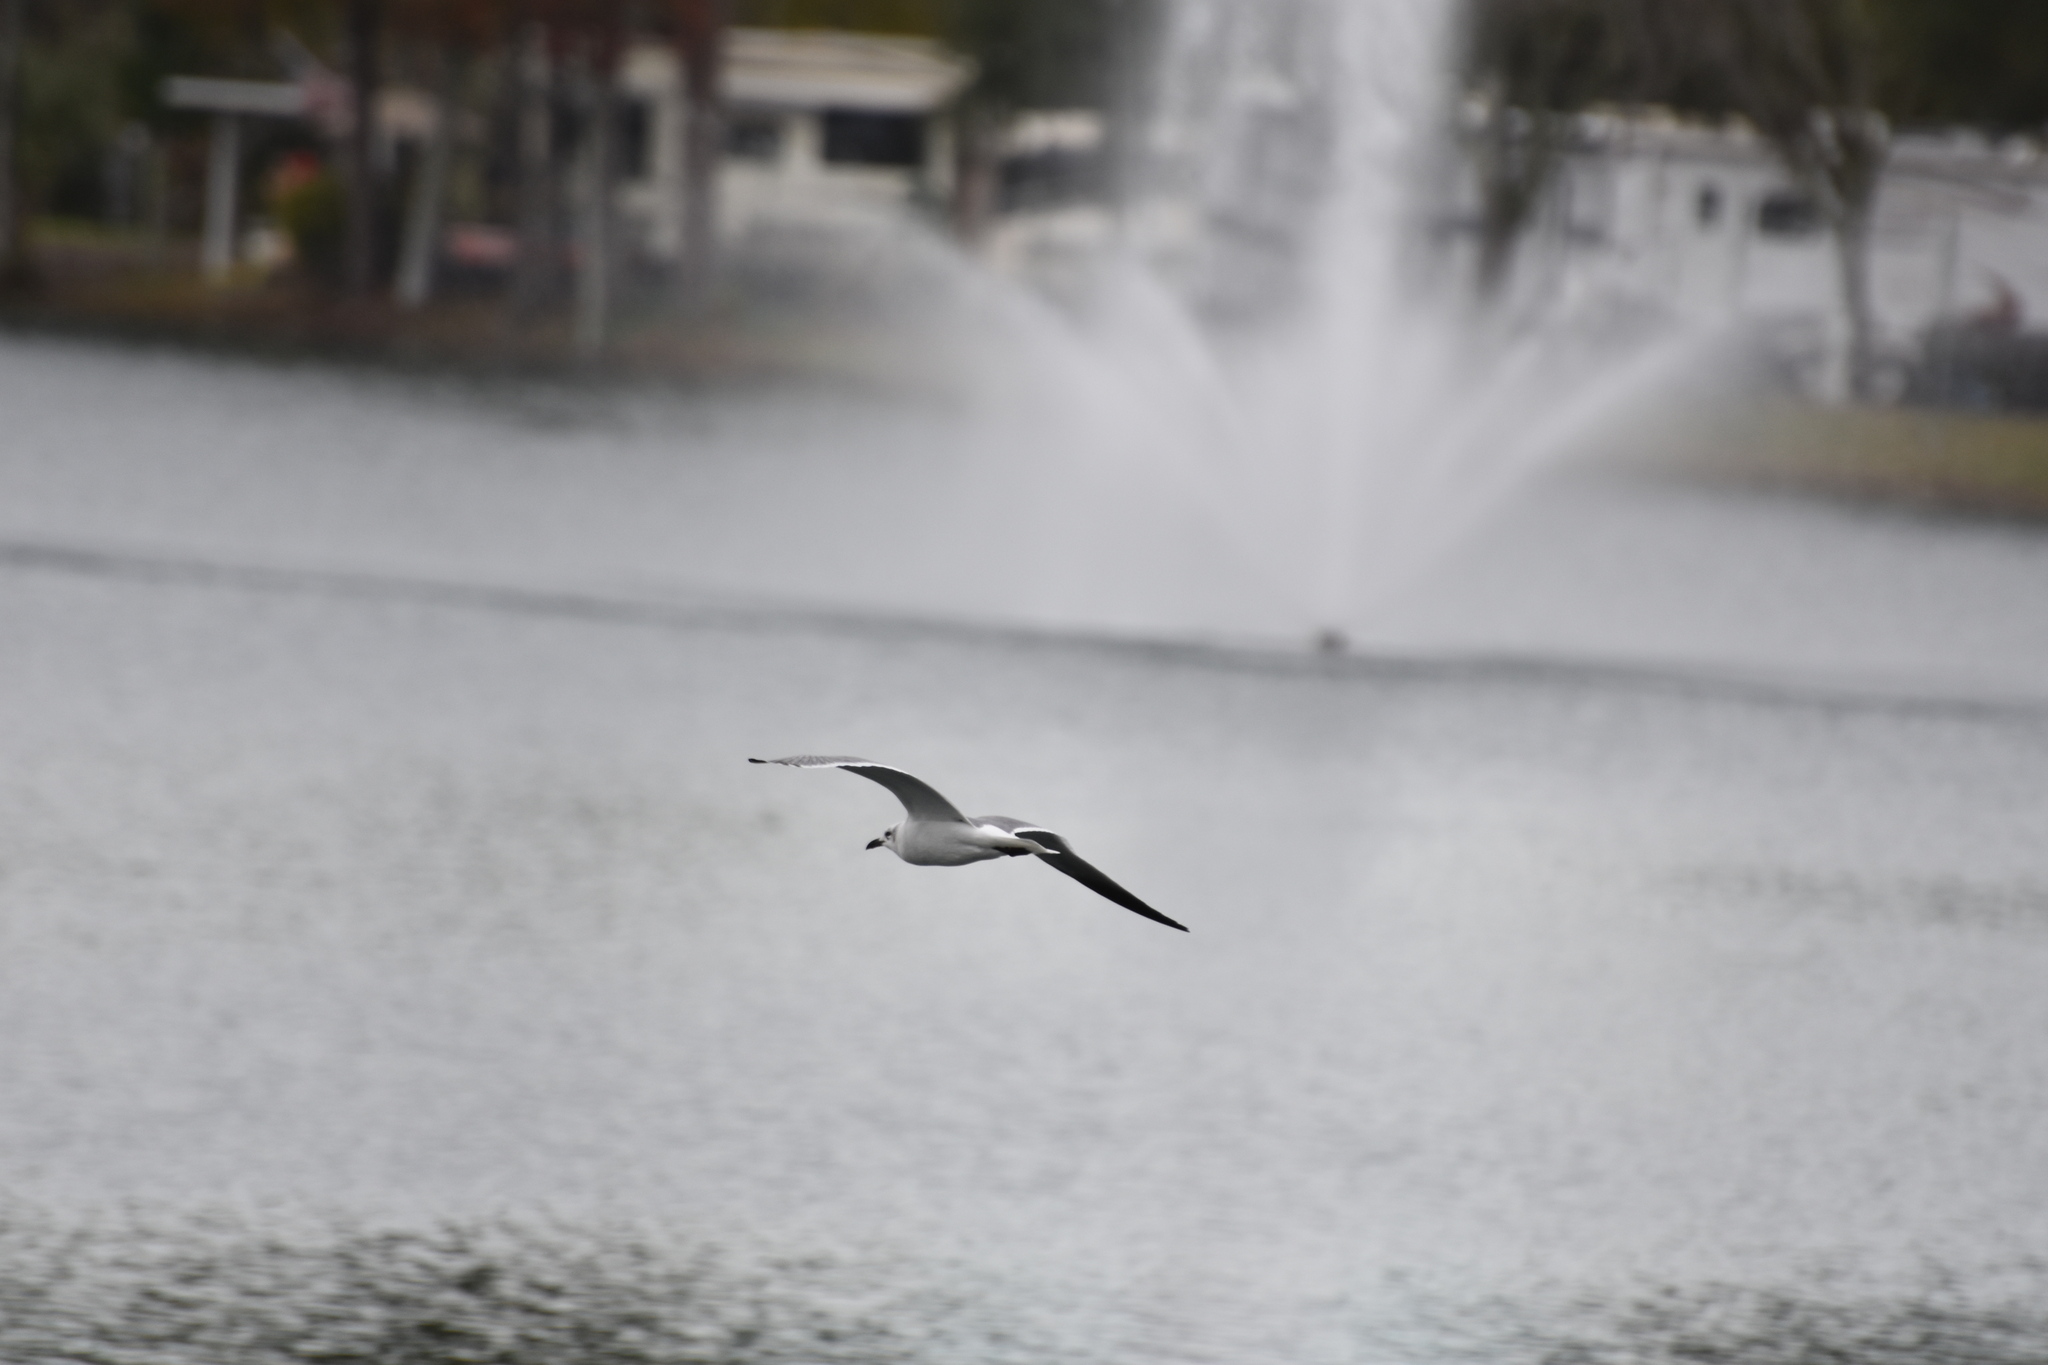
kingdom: Animalia
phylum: Chordata
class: Aves
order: Charadriiformes
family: Laridae
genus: Leucophaeus
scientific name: Leucophaeus atricilla
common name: Laughing gull
